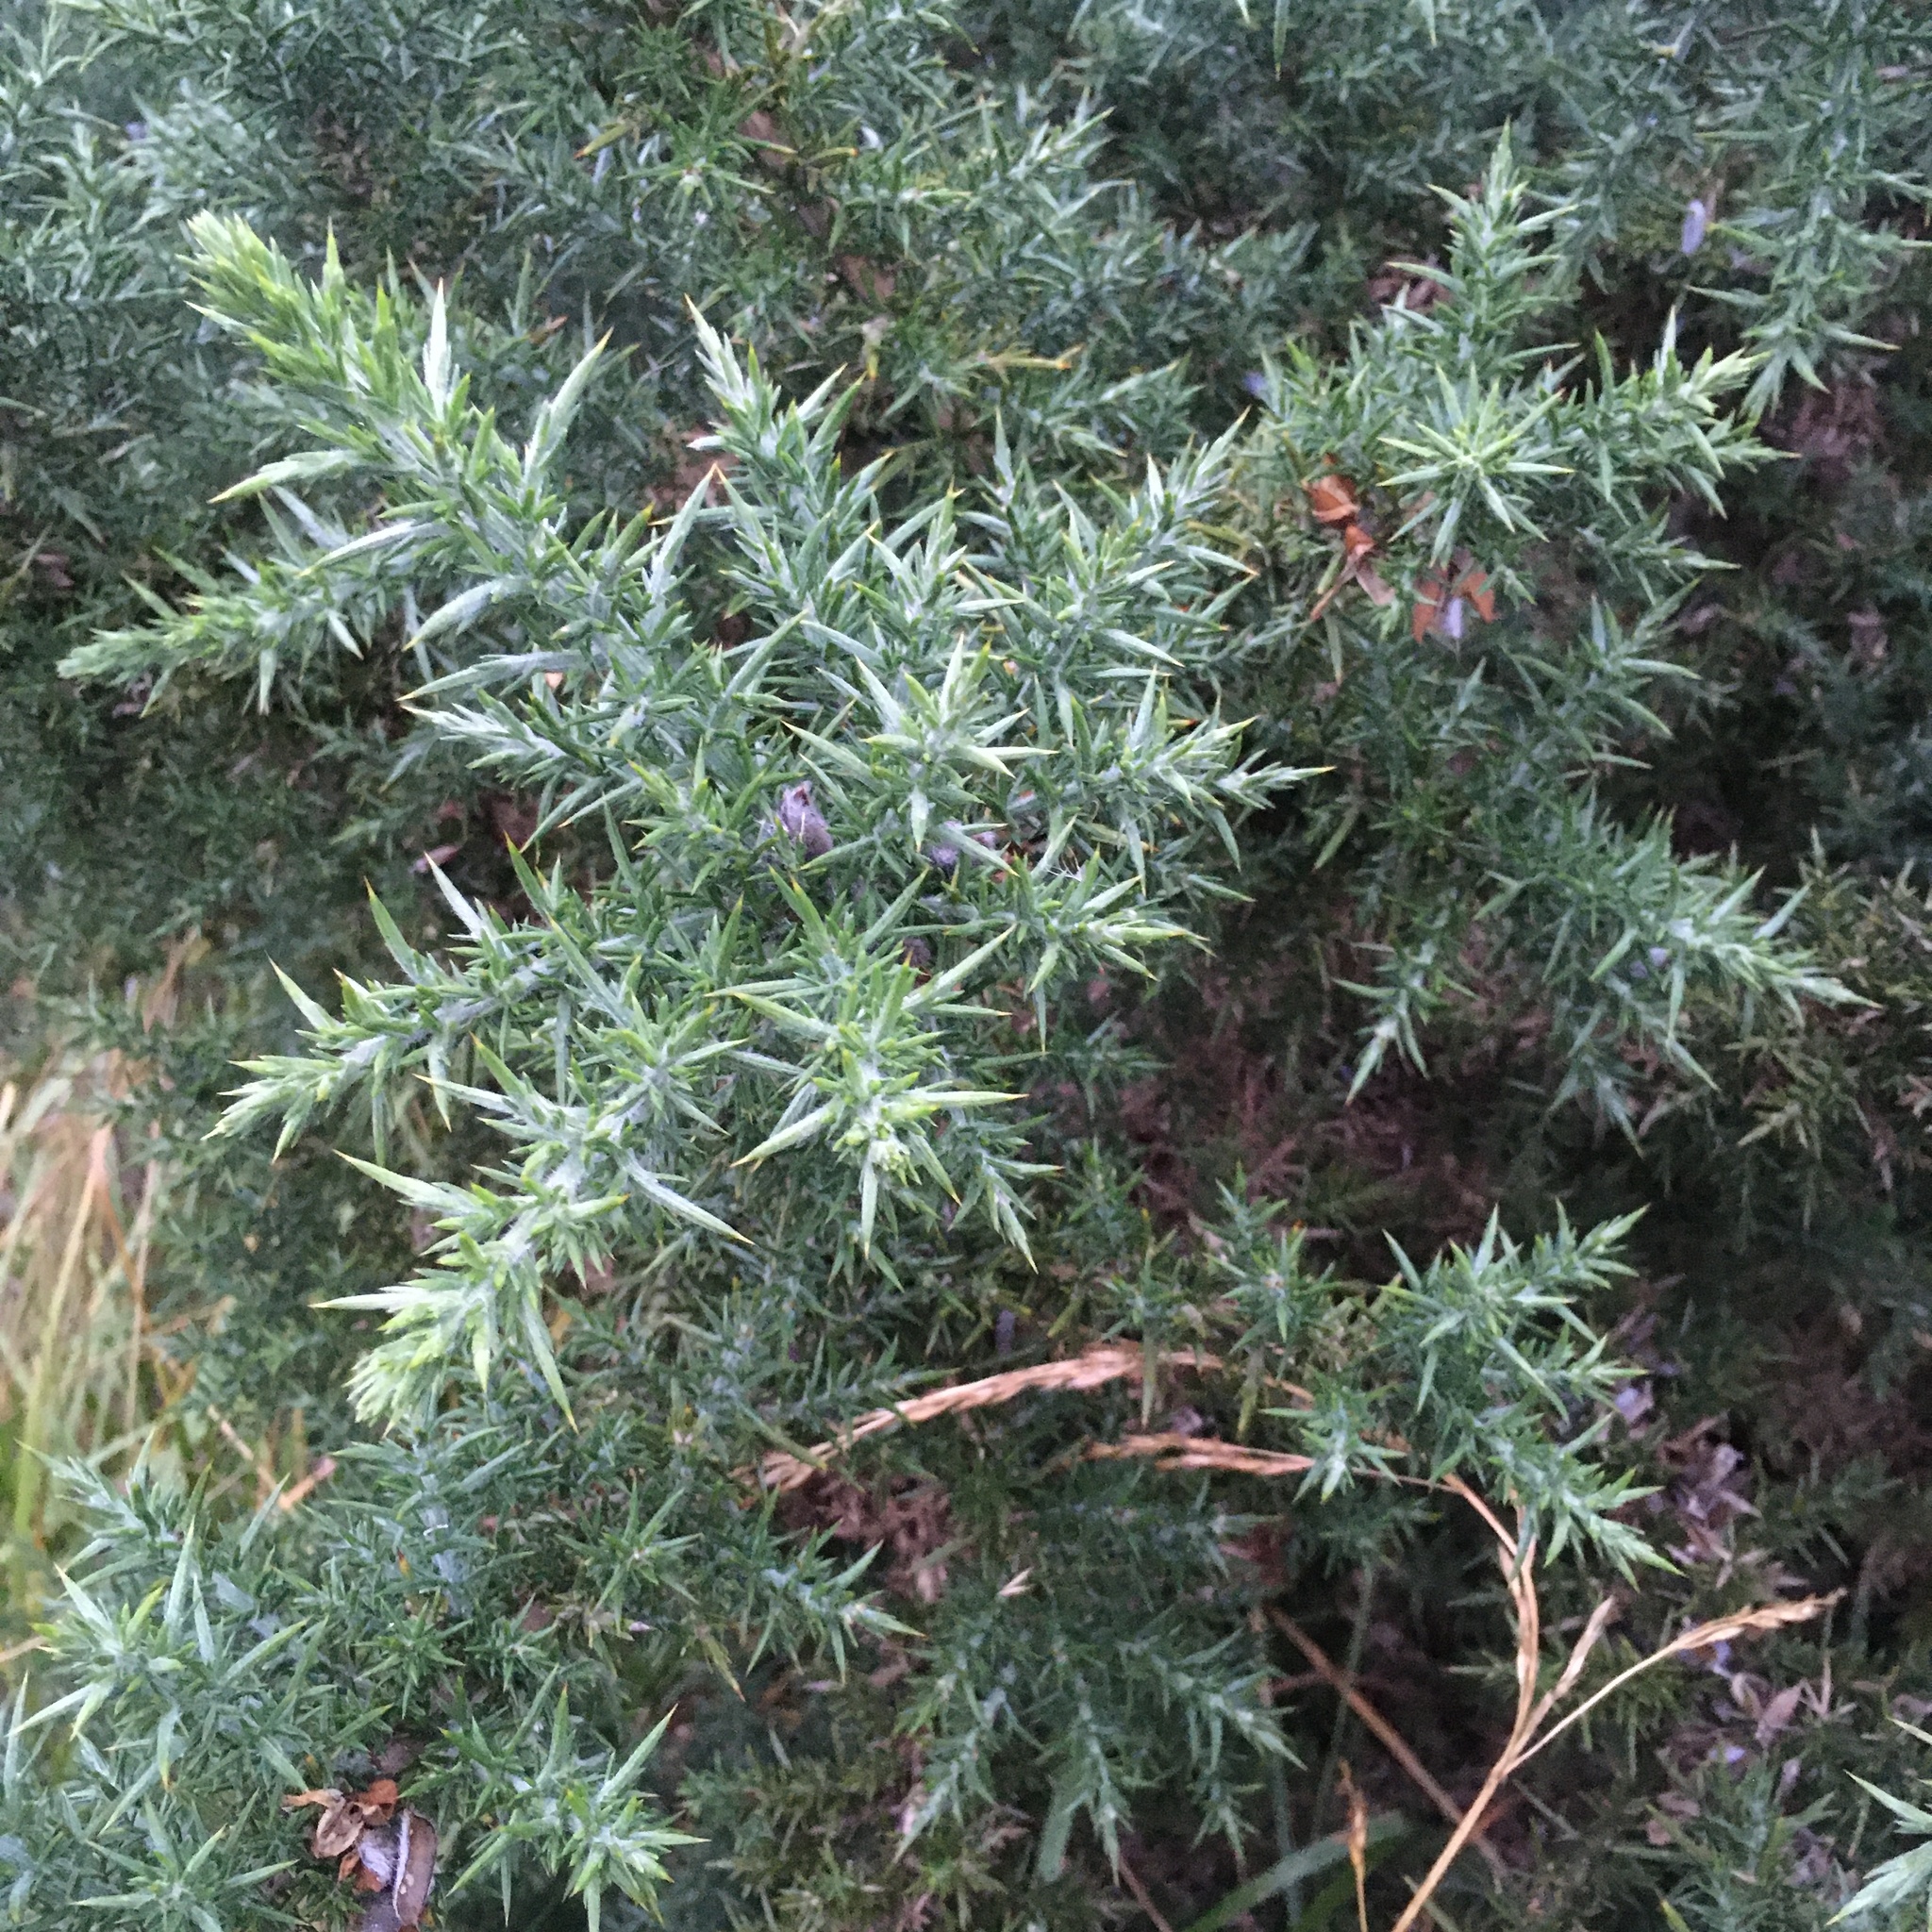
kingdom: Plantae
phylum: Tracheophyta
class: Magnoliopsida
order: Fabales
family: Fabaceae
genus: Ulex
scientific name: Ulex europaeus
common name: Common gorse
